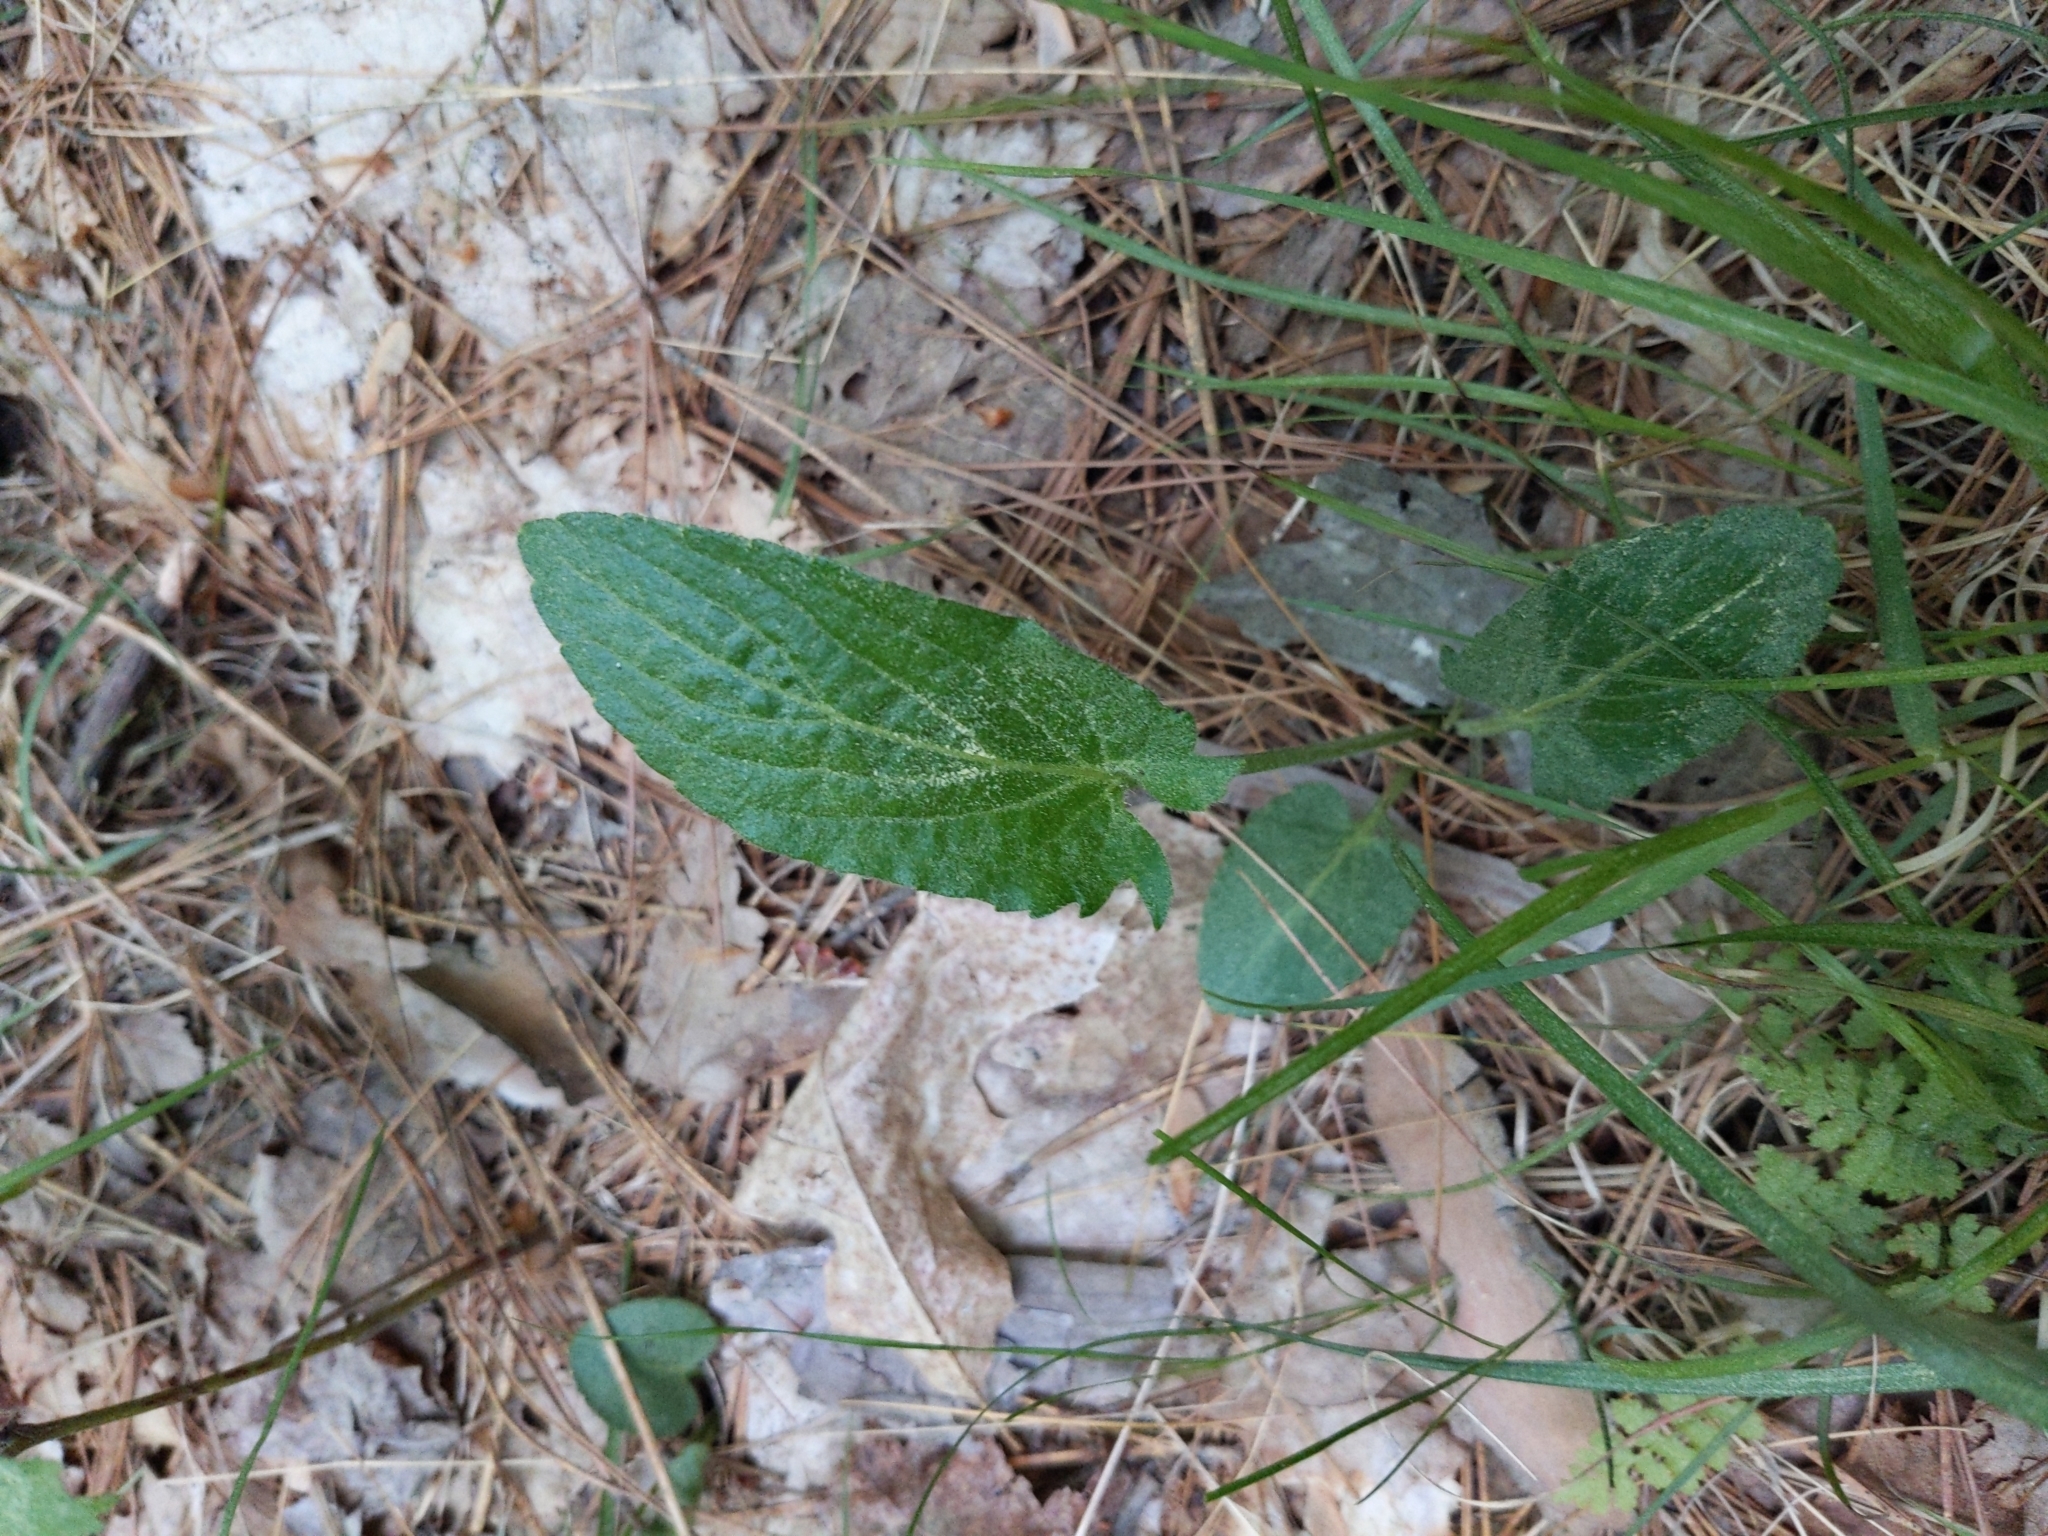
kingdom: Plantae
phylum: Tracheophyta
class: Magnoliopsida
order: Malpighiales
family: Violaceae
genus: Viola
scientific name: Viola sagittata
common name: Arrowhead violet
